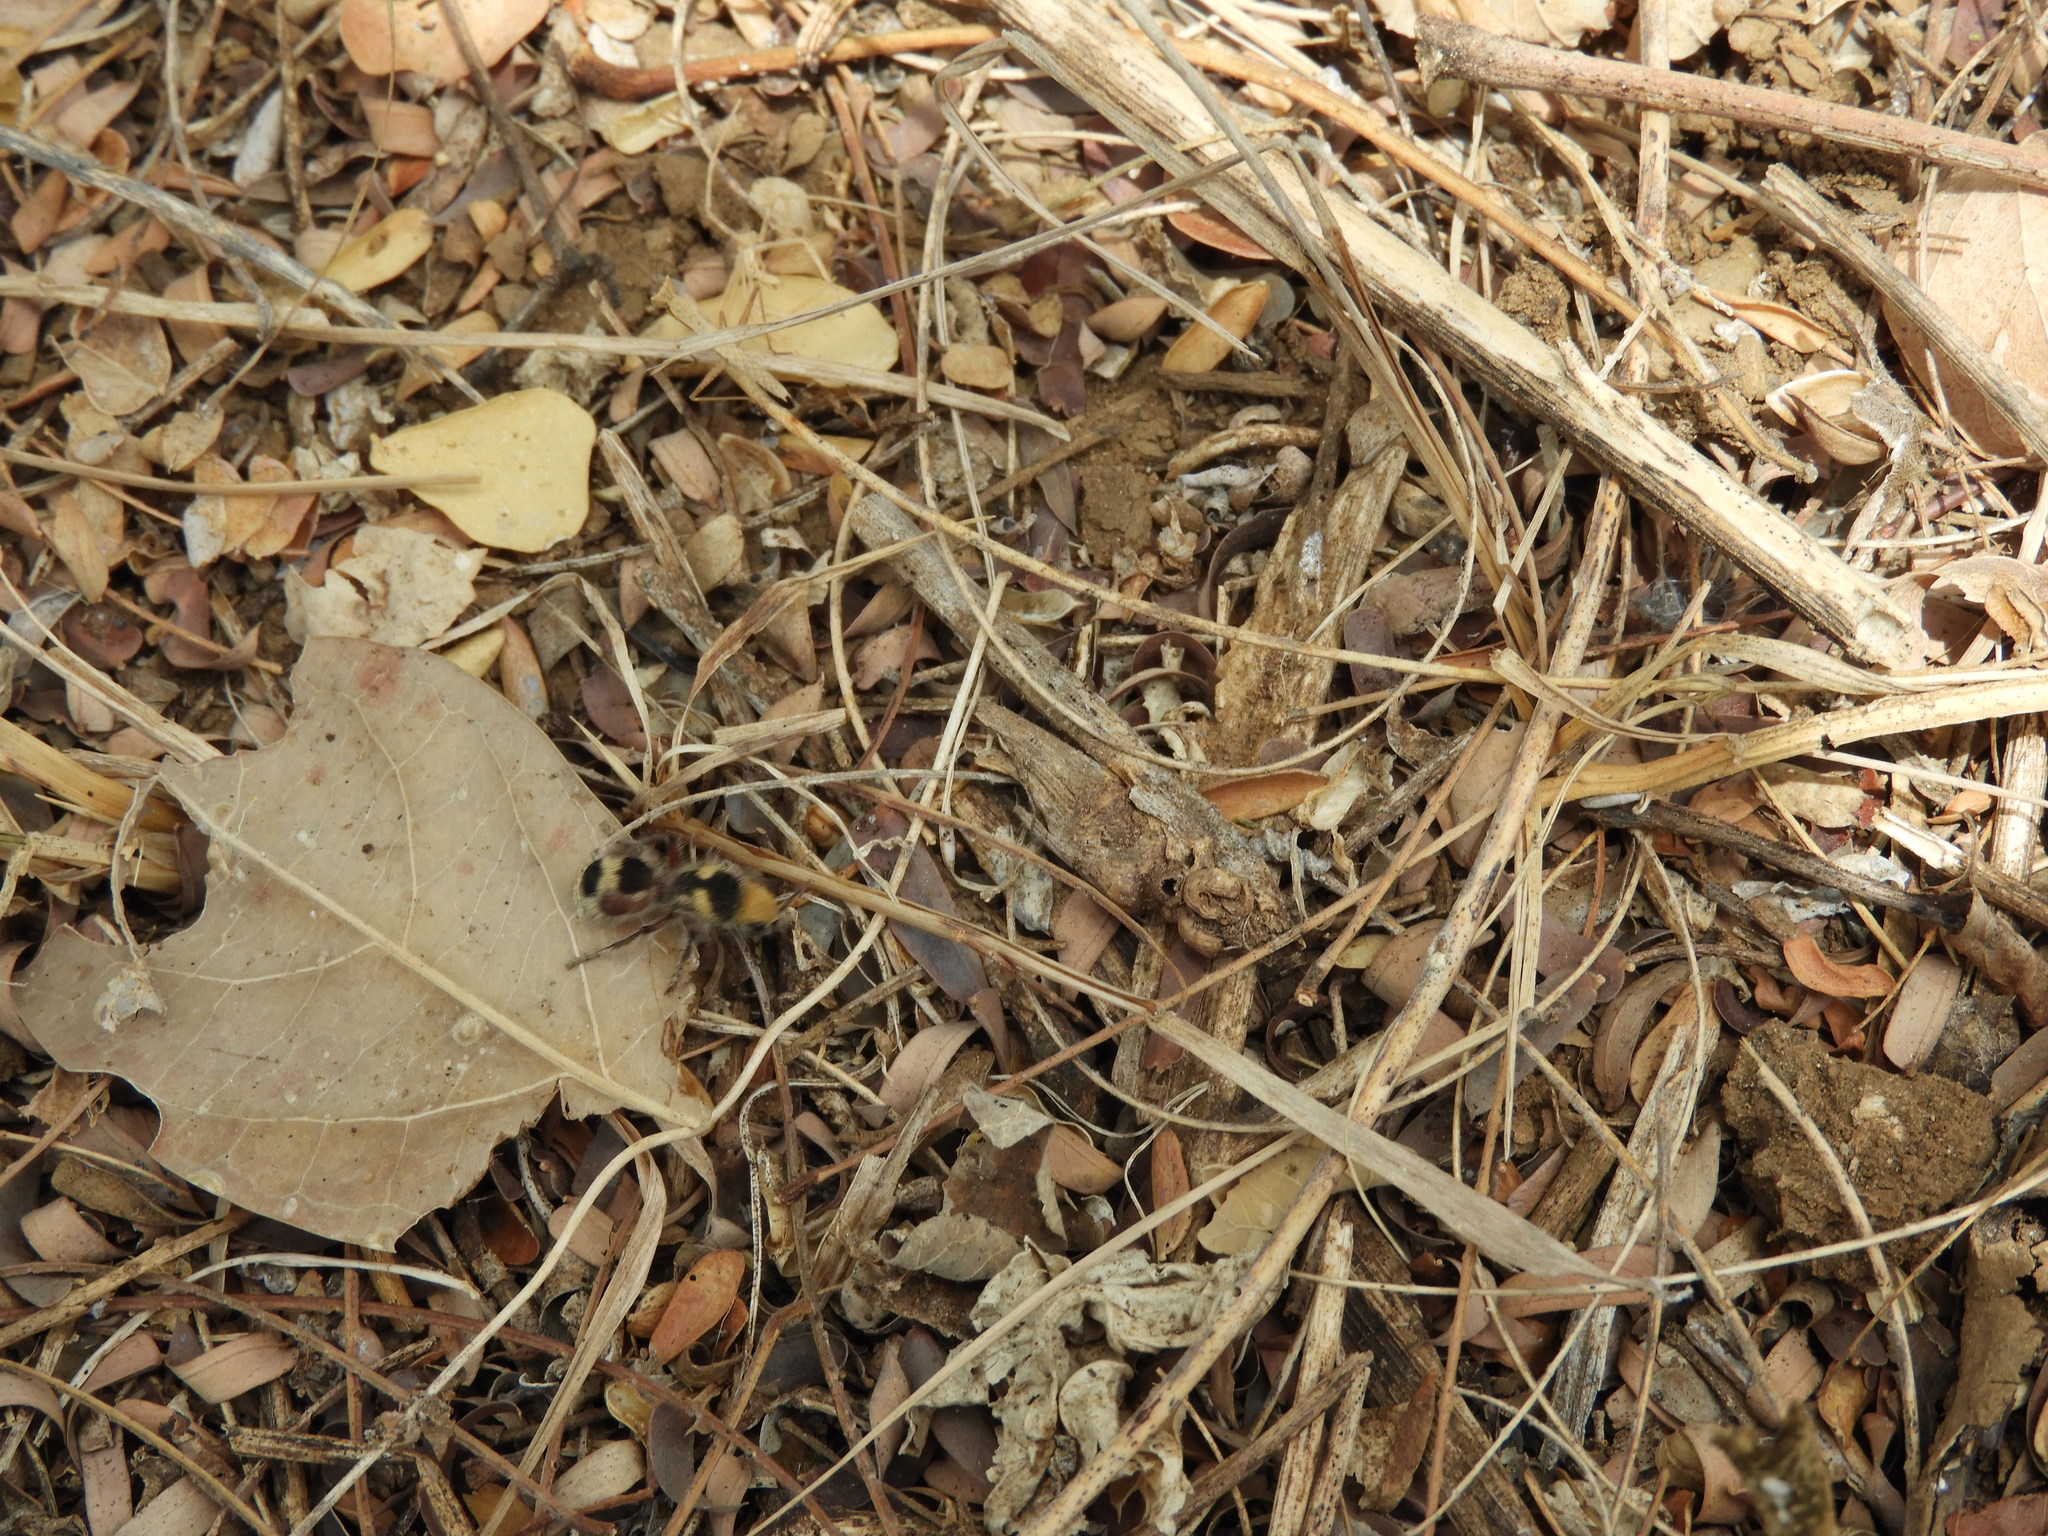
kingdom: Animalia
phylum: Arthropoda
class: Insecta
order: Hymenoptera
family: Mutillidae
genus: Dasymutilla
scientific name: Dasymutilla
